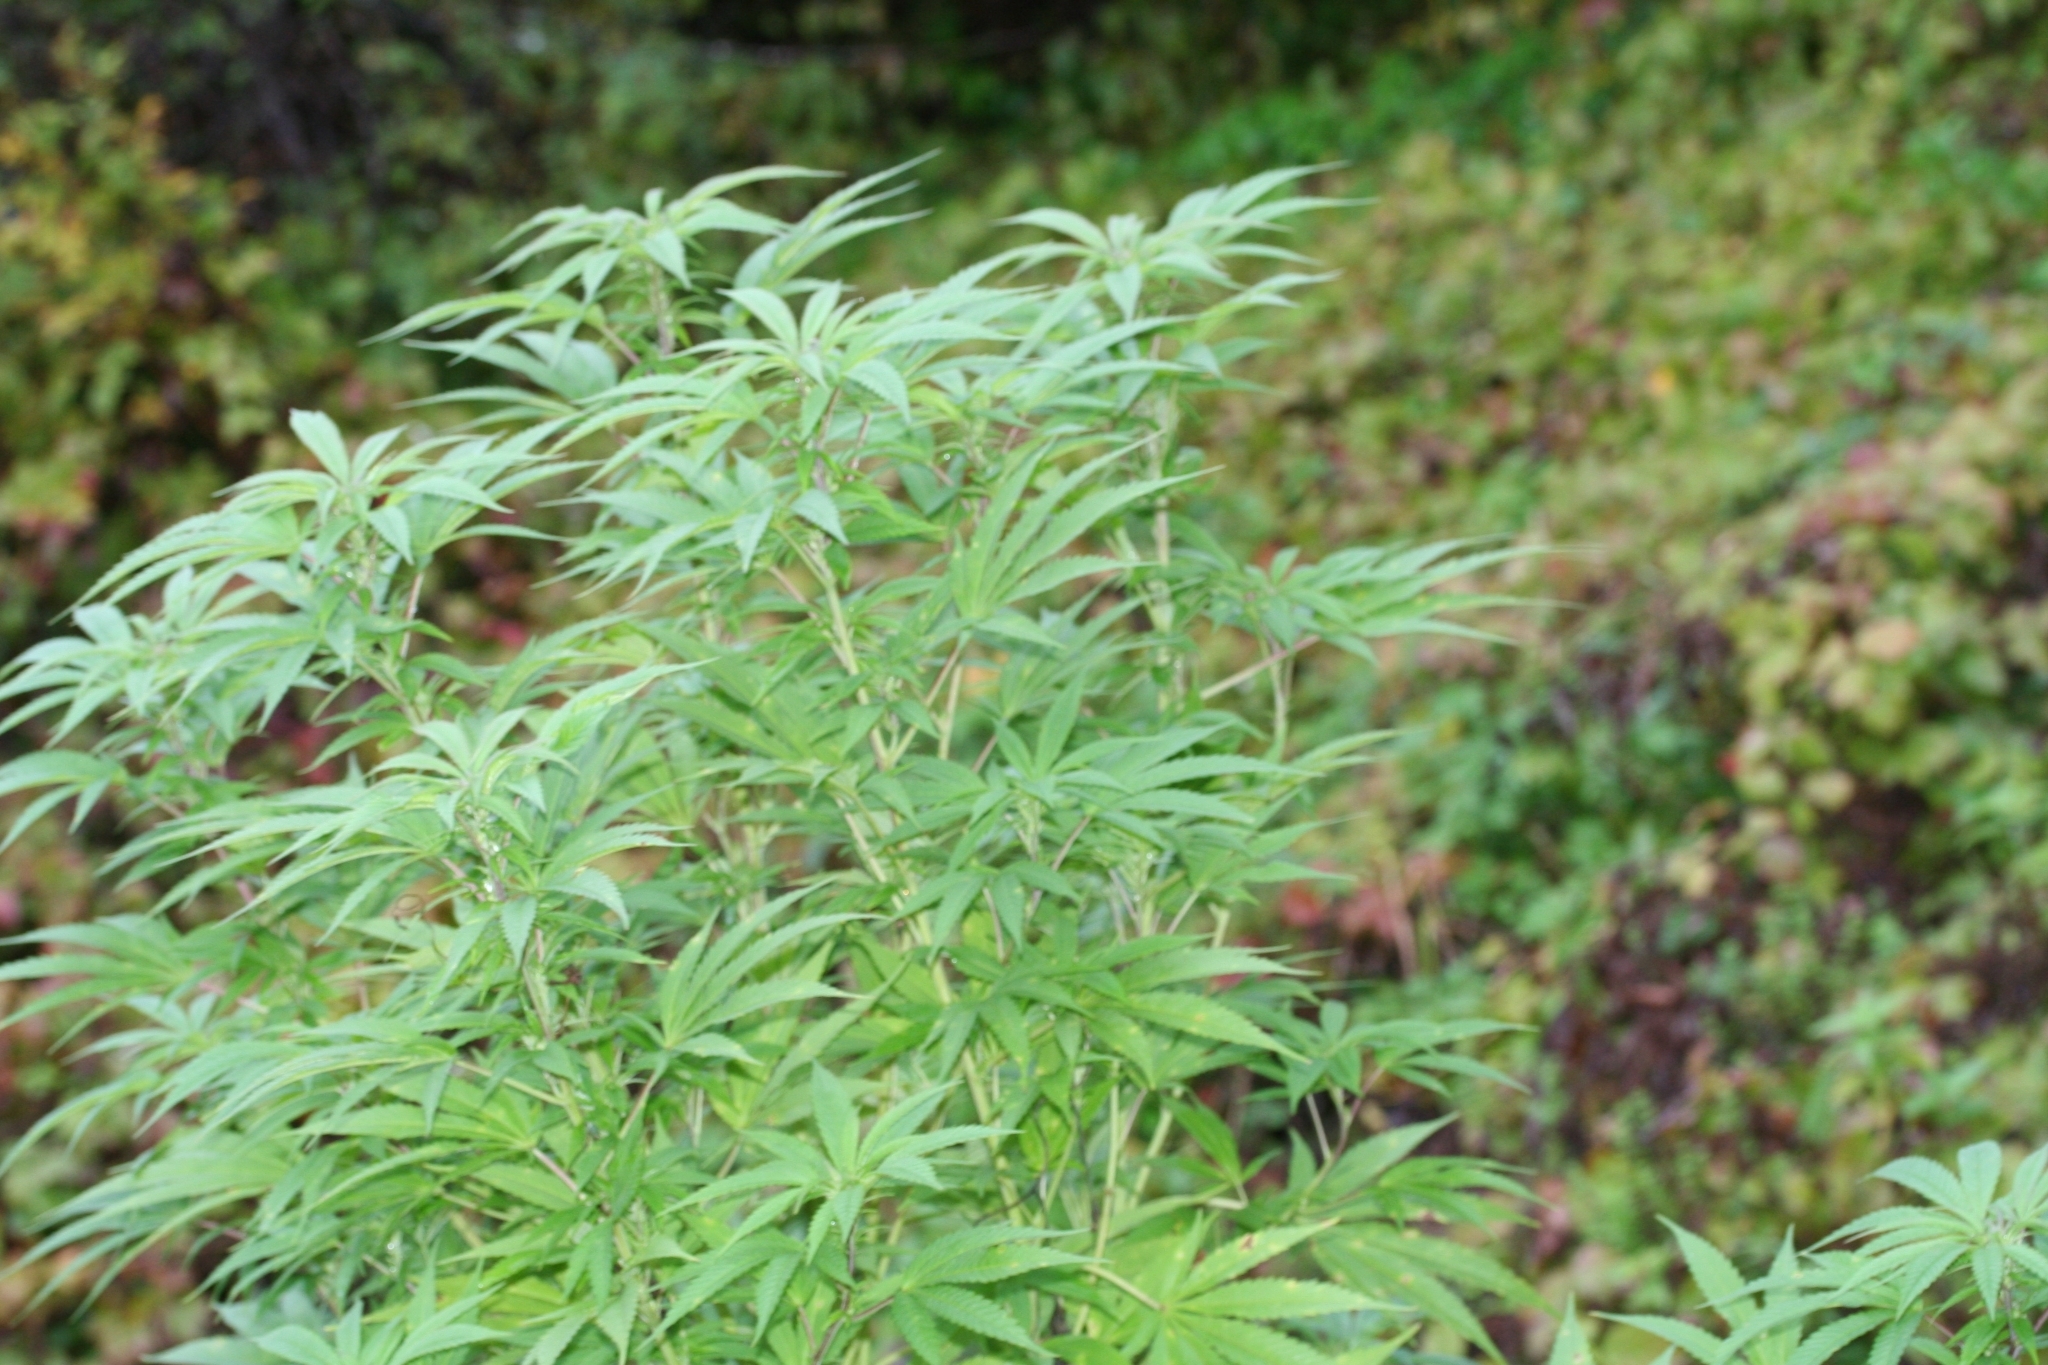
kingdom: Plantae
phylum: Tracheophyta
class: Magnoliopsida
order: Rosales
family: Cannabaceae
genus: Cannabis
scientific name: Cannabis sativa
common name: Hemp
